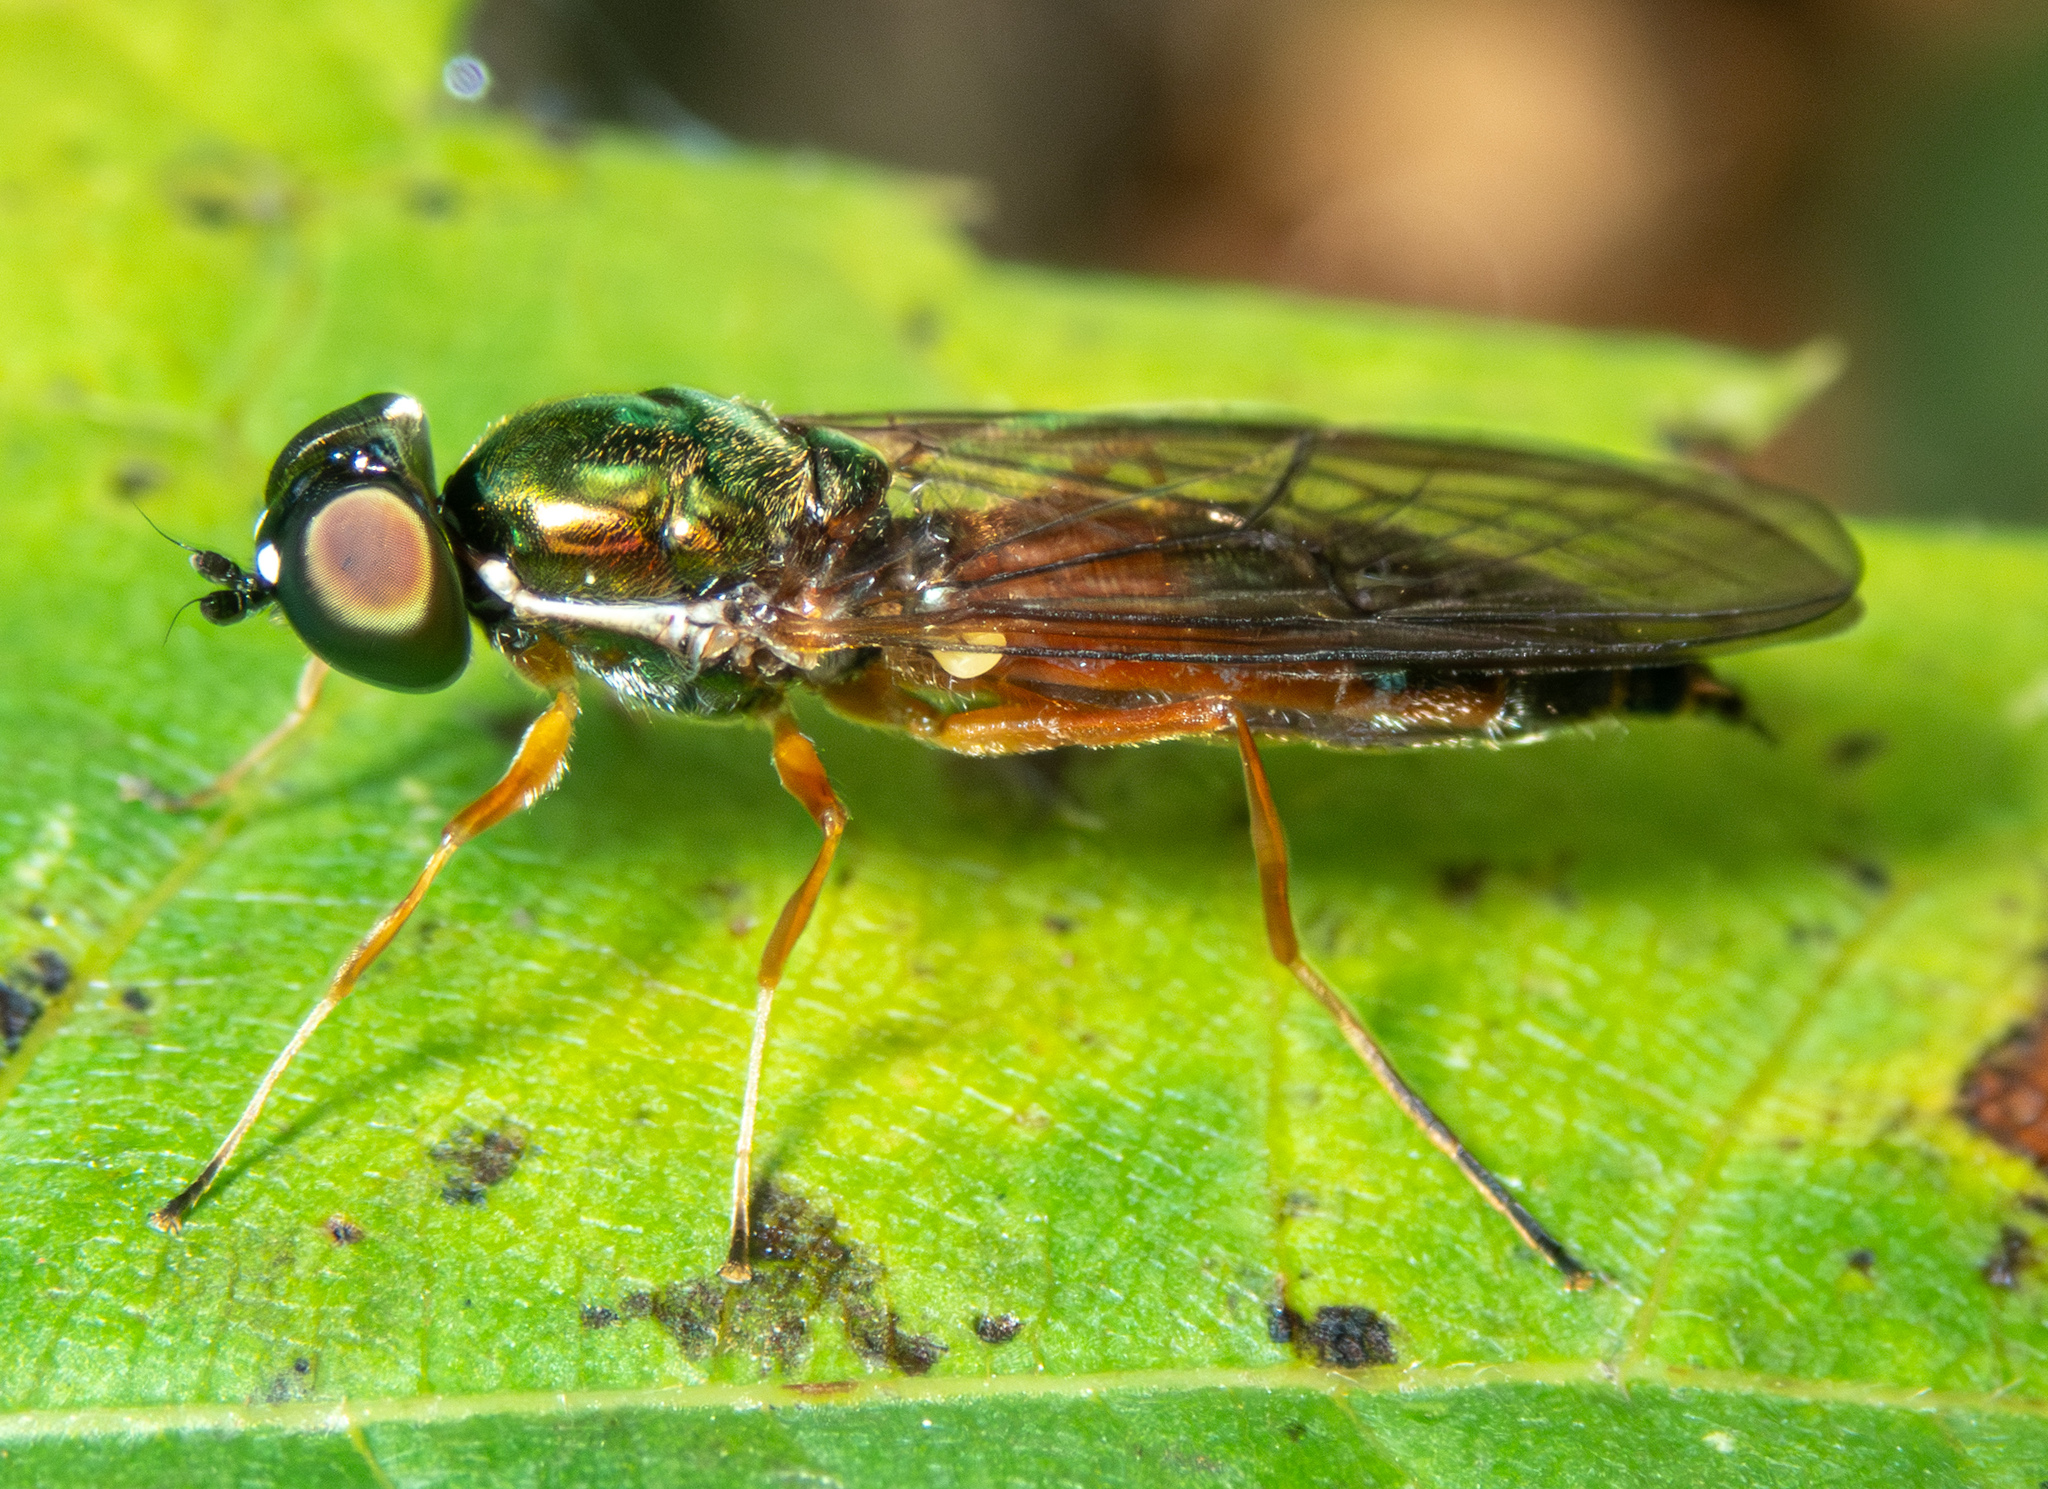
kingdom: Animalia
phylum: Arthropoda
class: Insecta
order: Diptera
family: Stratiomyidae
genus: Sargus
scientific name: Sargus bipunctatus
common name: Twin-spot centurion
